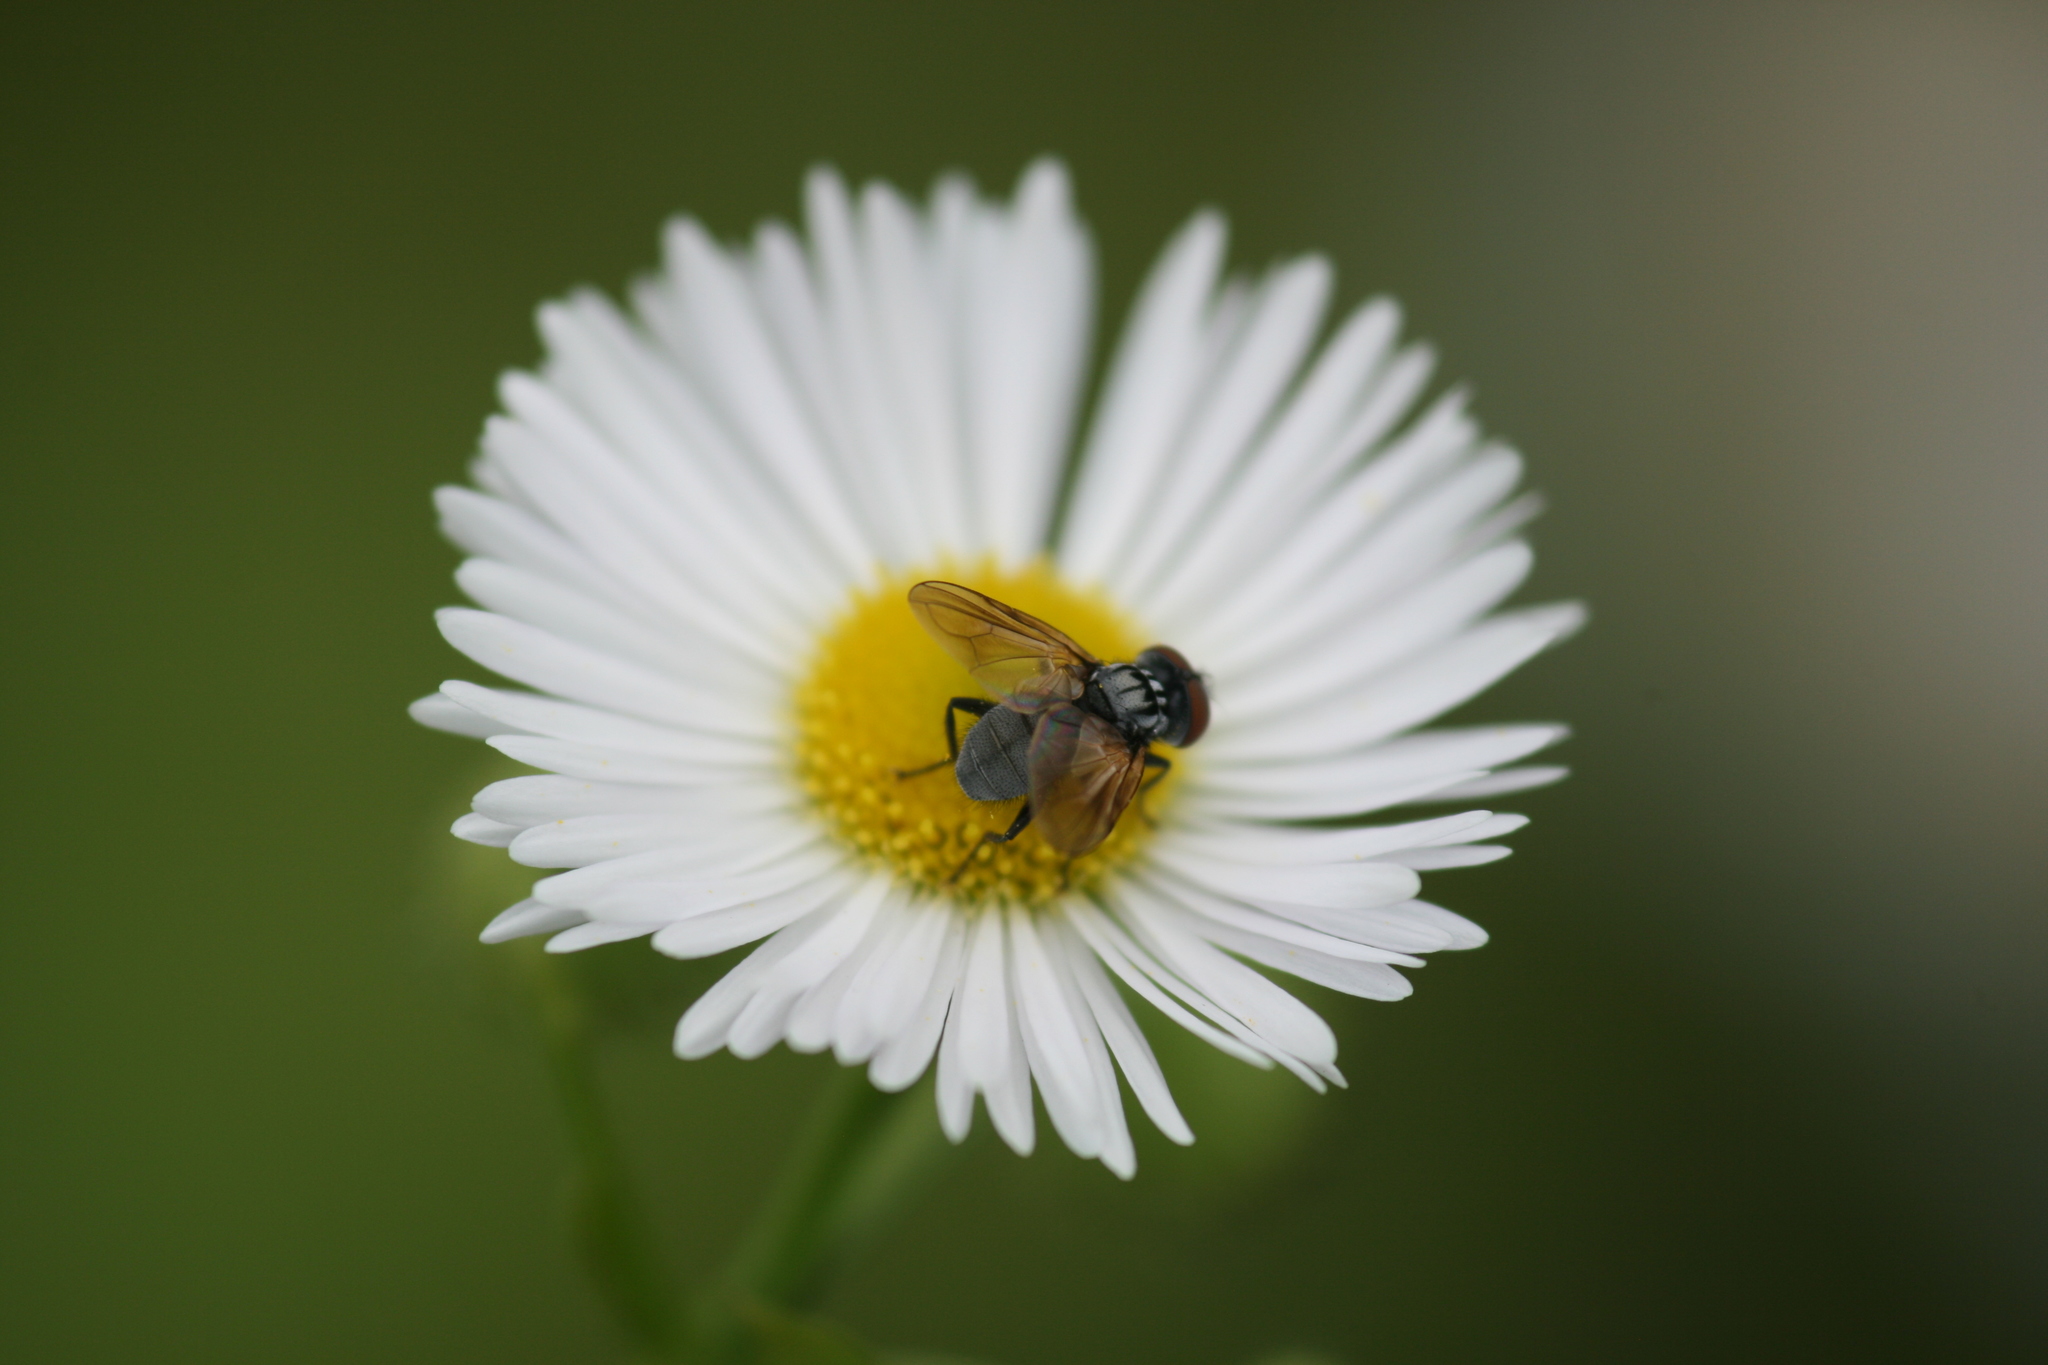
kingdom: Animalia
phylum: Arthropoda
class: Insecta
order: Diptera
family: Tachinidae
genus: Phasia
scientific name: Phasia obesa
